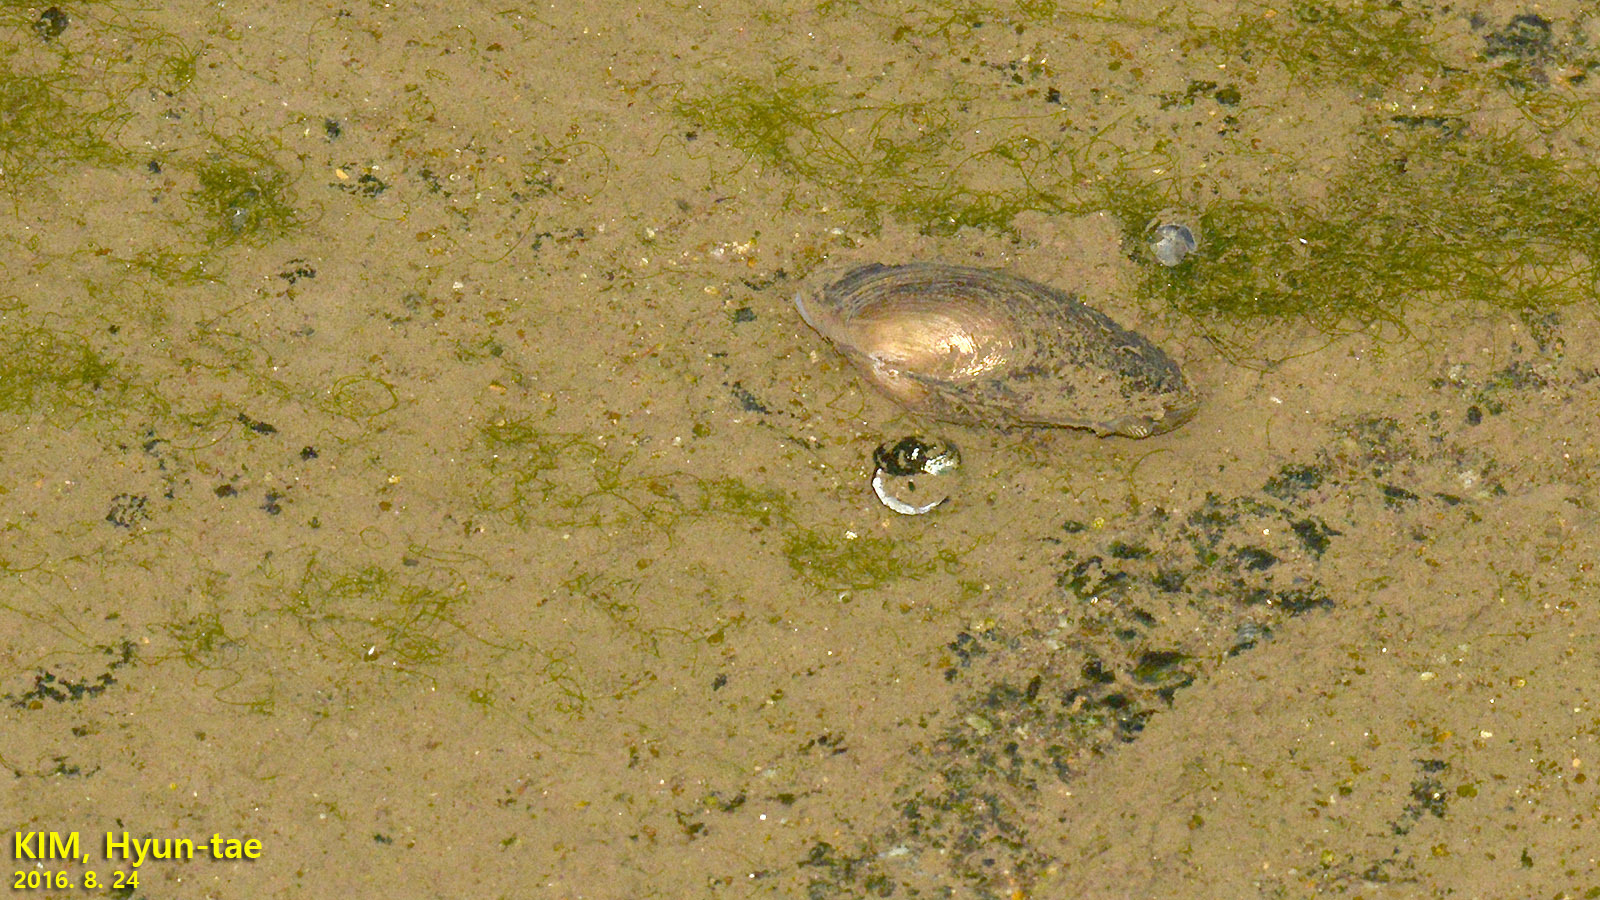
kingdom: Animalia
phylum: Mollusca
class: Bivalvia
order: Unionida
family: Unionidae
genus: Sinanodonta
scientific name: Sinanodonta lauta
